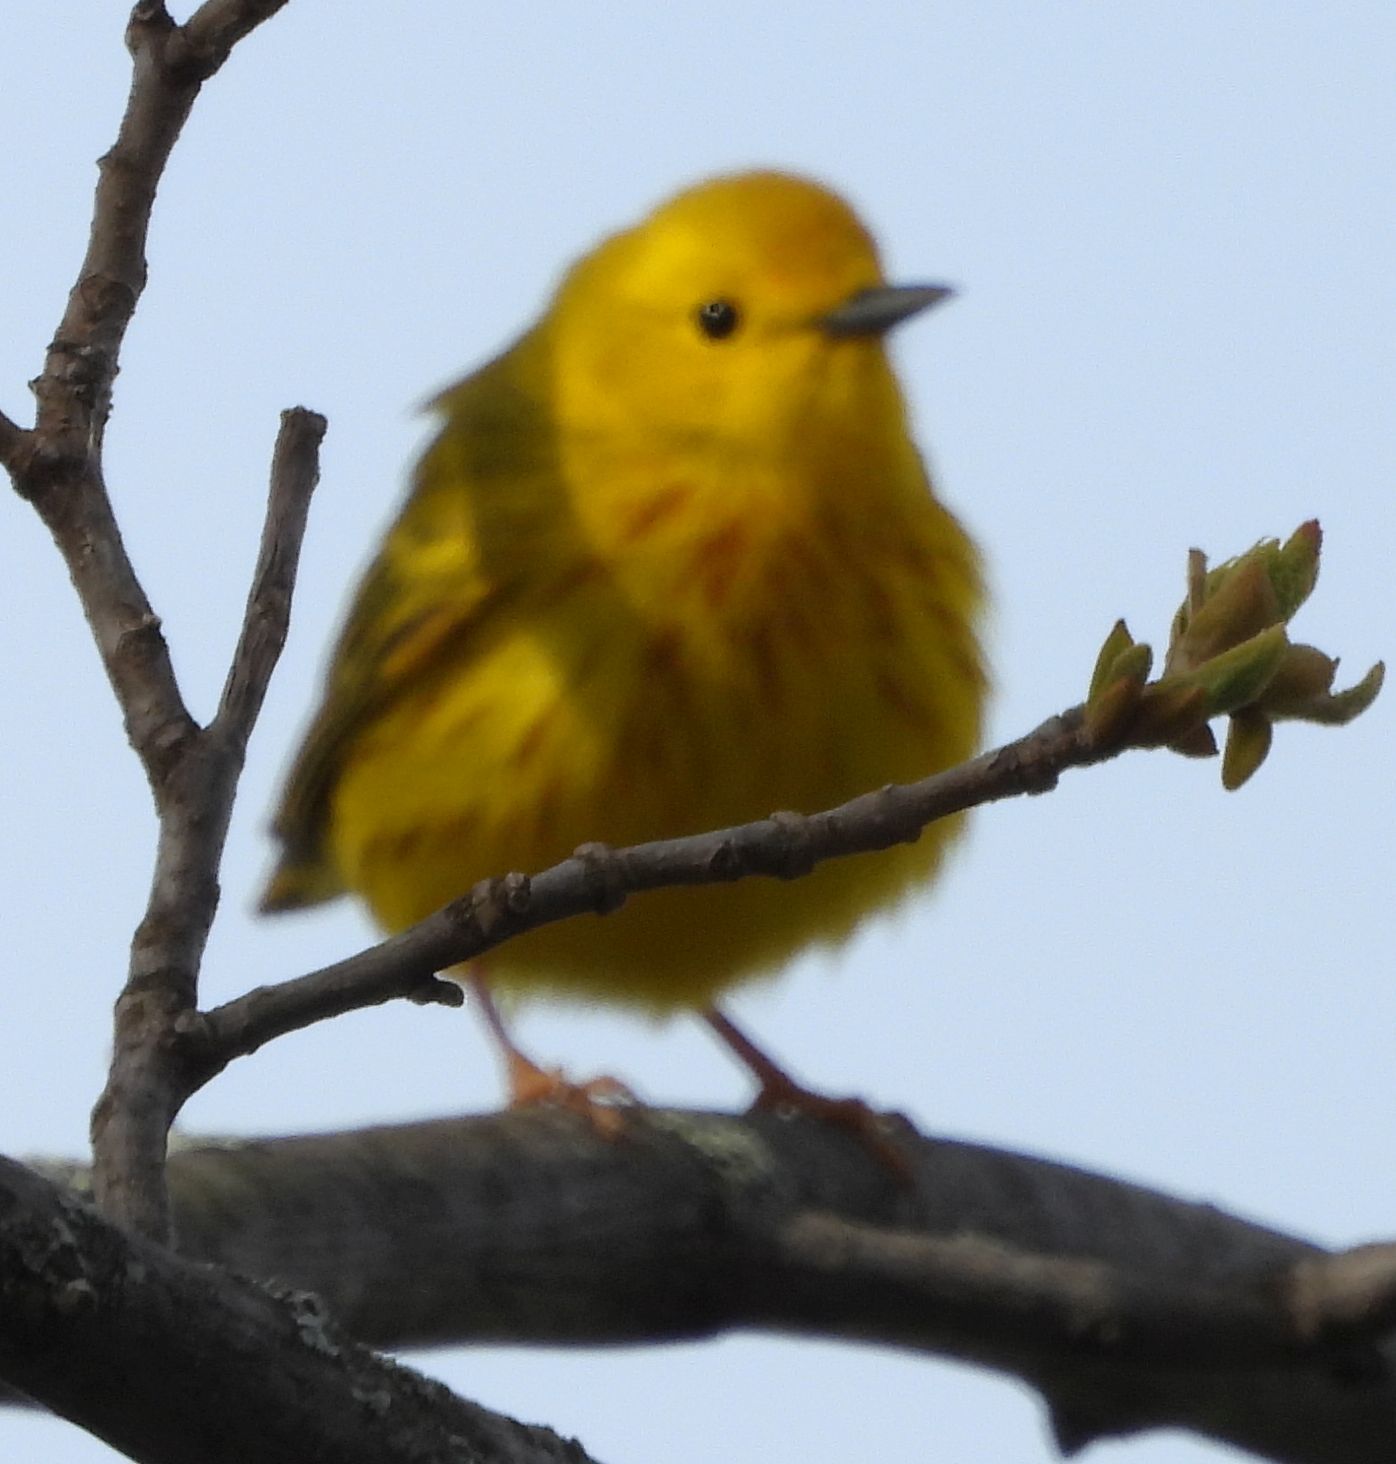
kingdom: Animalia
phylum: Chordata
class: Aves
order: Passeriformes
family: Parulidae
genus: Setophaga
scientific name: Setophaga petechia
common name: Yellow warbler
